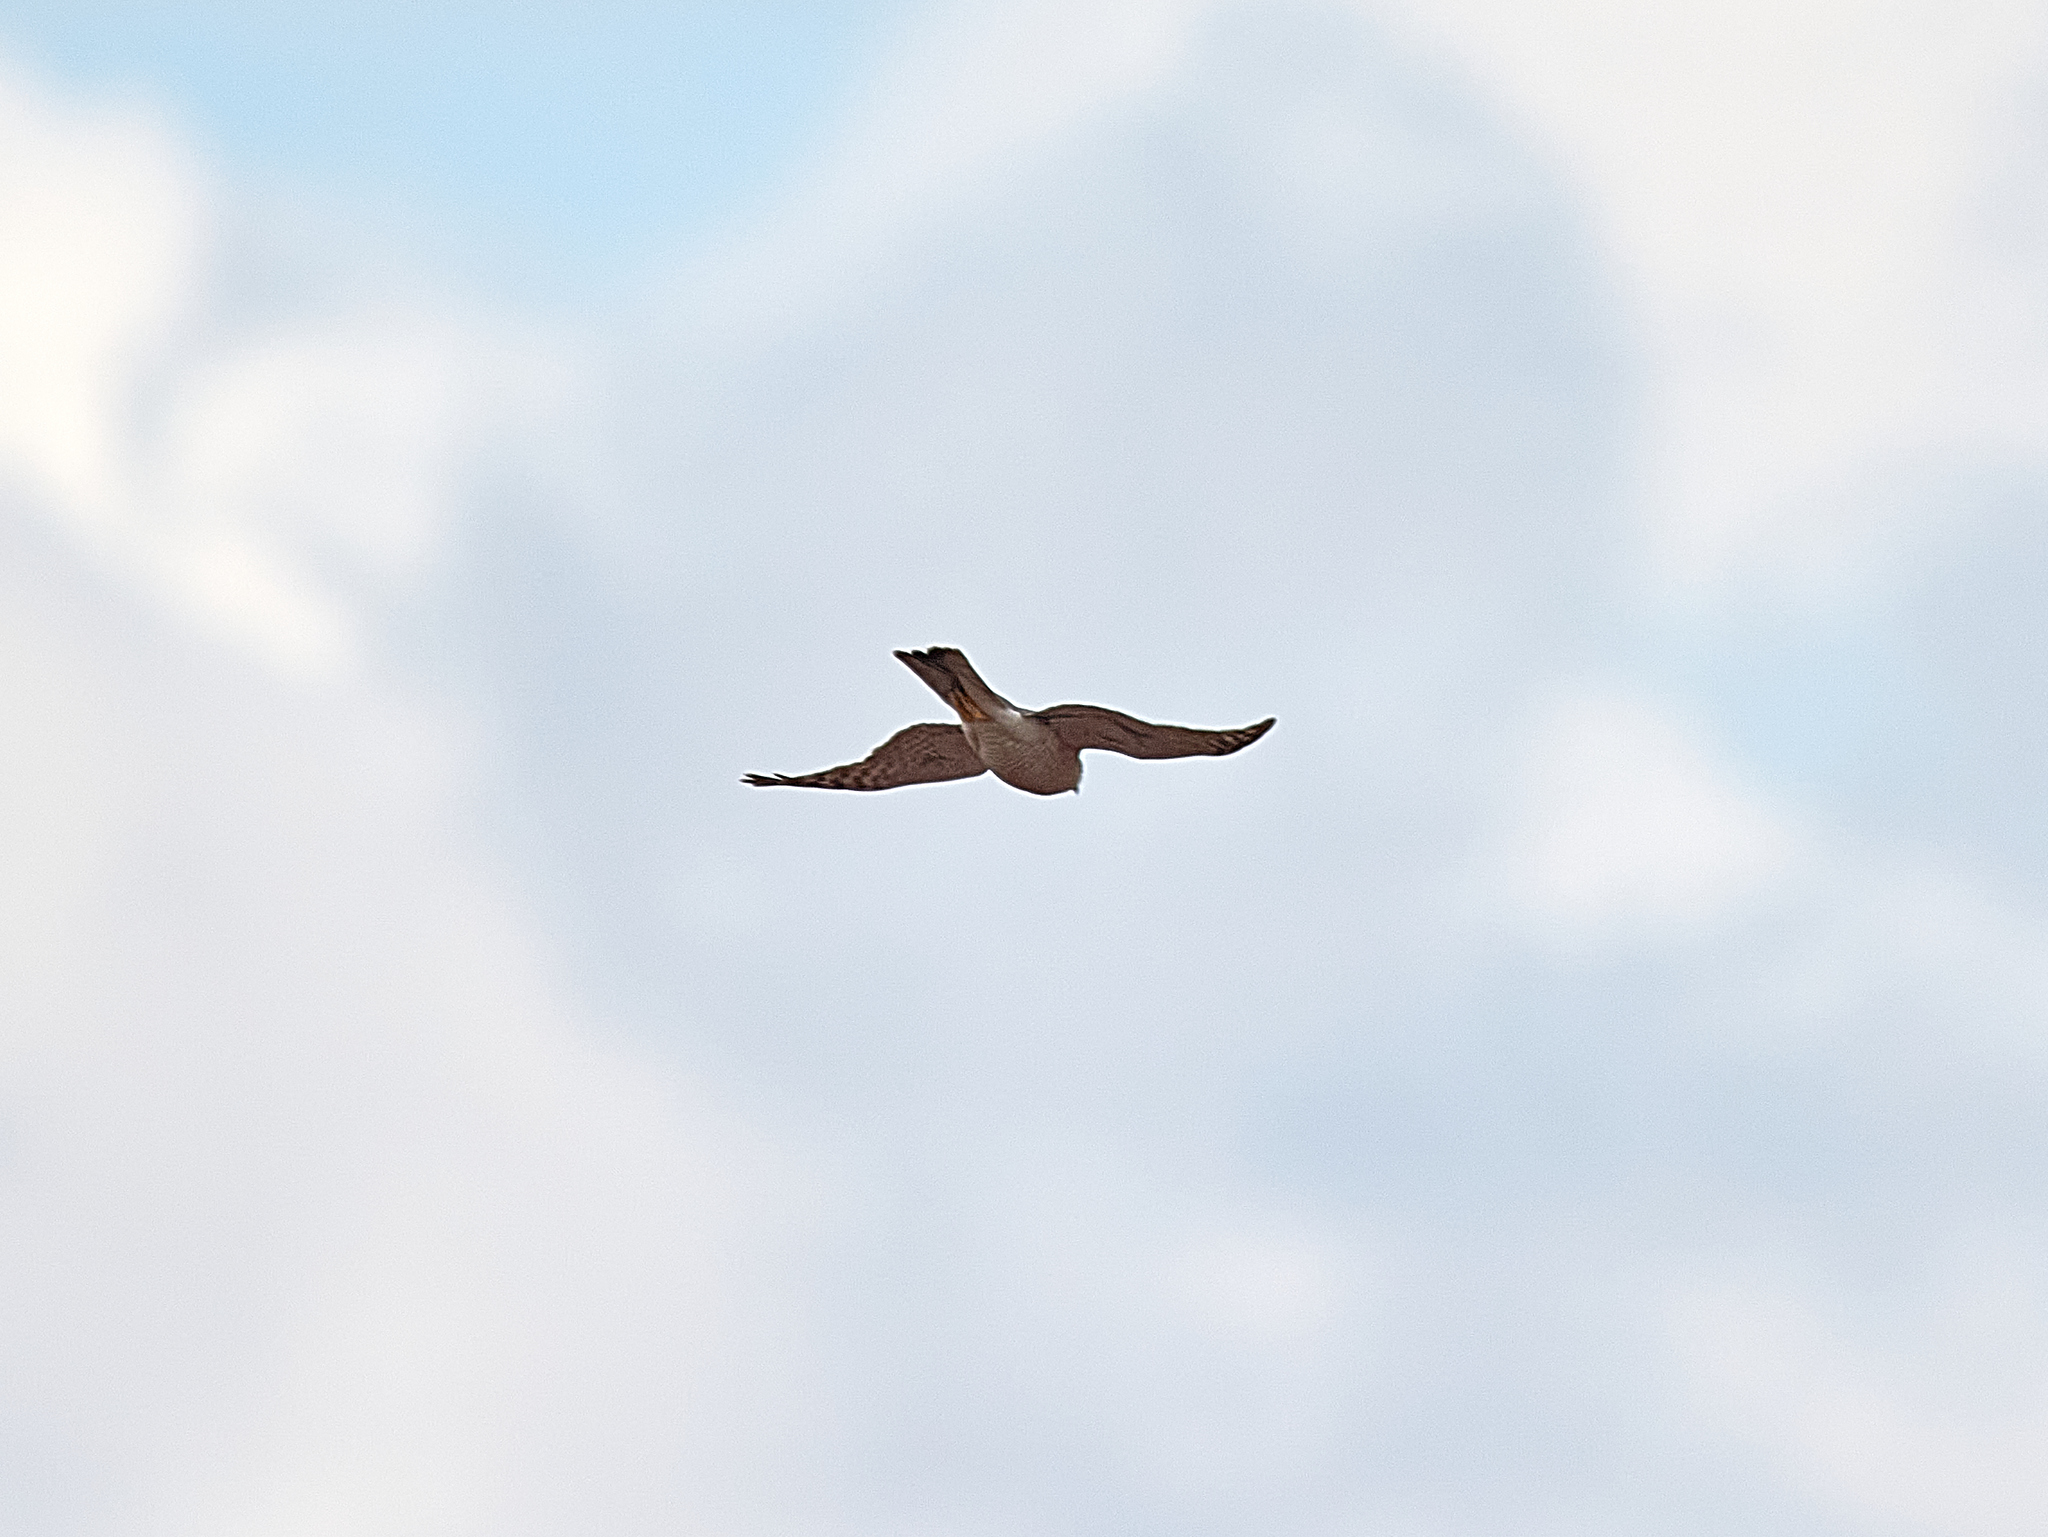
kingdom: Animalia
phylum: Chordata
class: Aves
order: Accipitriformes
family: Accipitridae
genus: Accipiter
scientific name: Accipiter nisus
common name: Eurasian sparrowhawk
